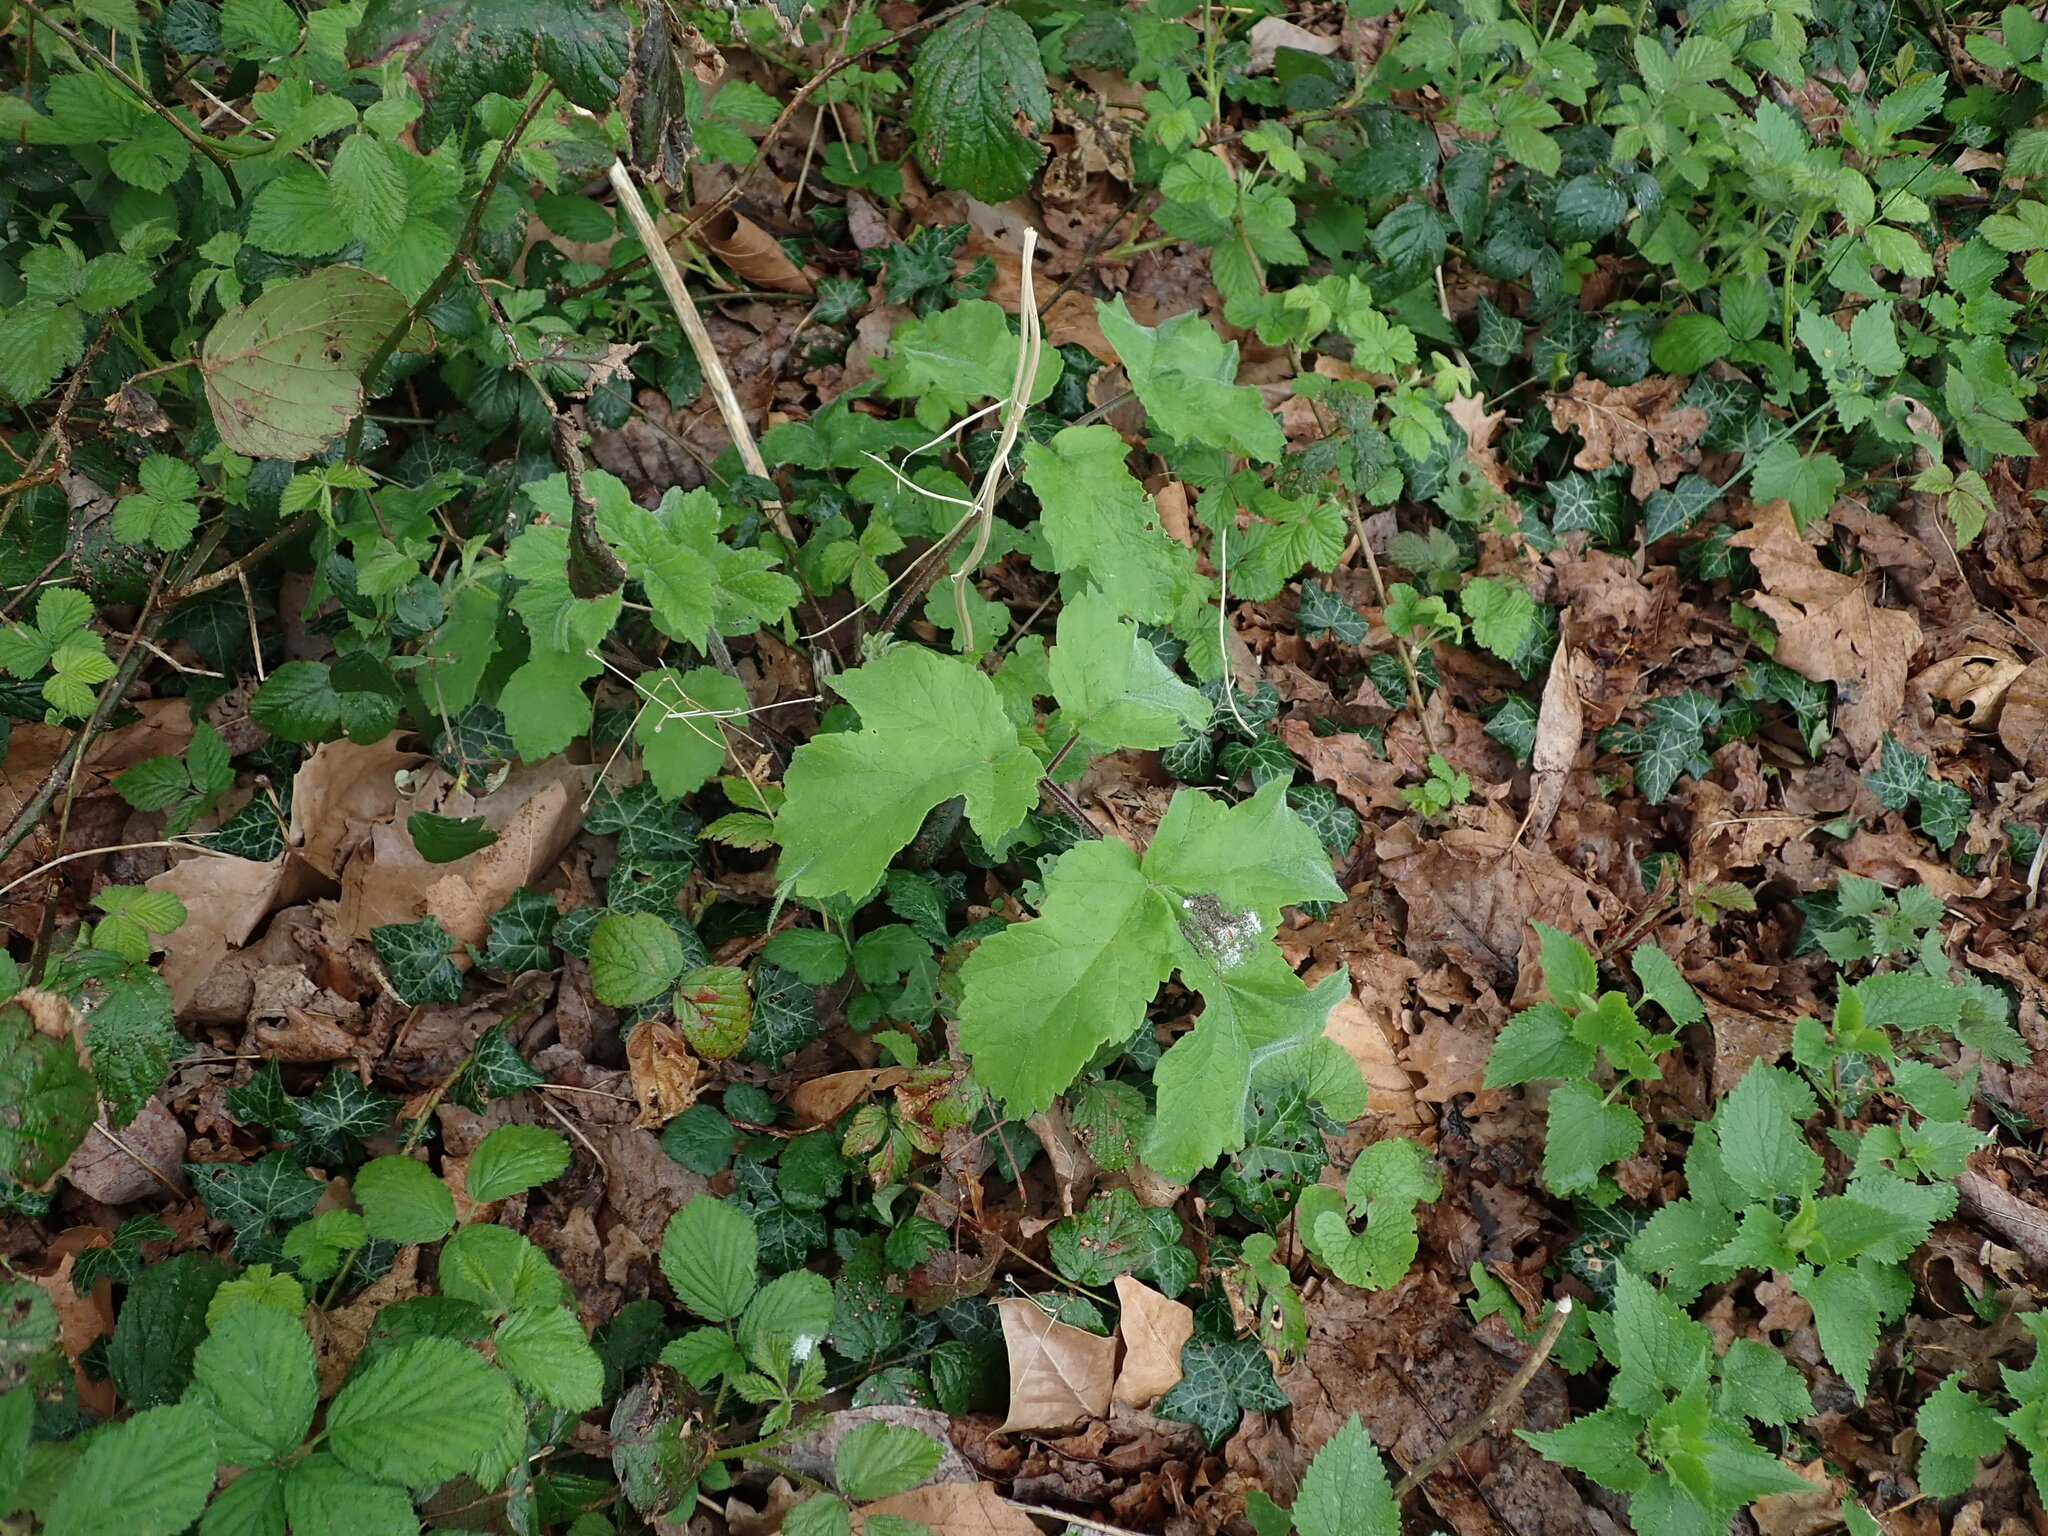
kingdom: Plantae
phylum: Tracheophyta
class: Magnoliopsida
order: Apiales
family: Apiaceae
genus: Heracleum
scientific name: Heracleum sphondylium
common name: Hogweed
